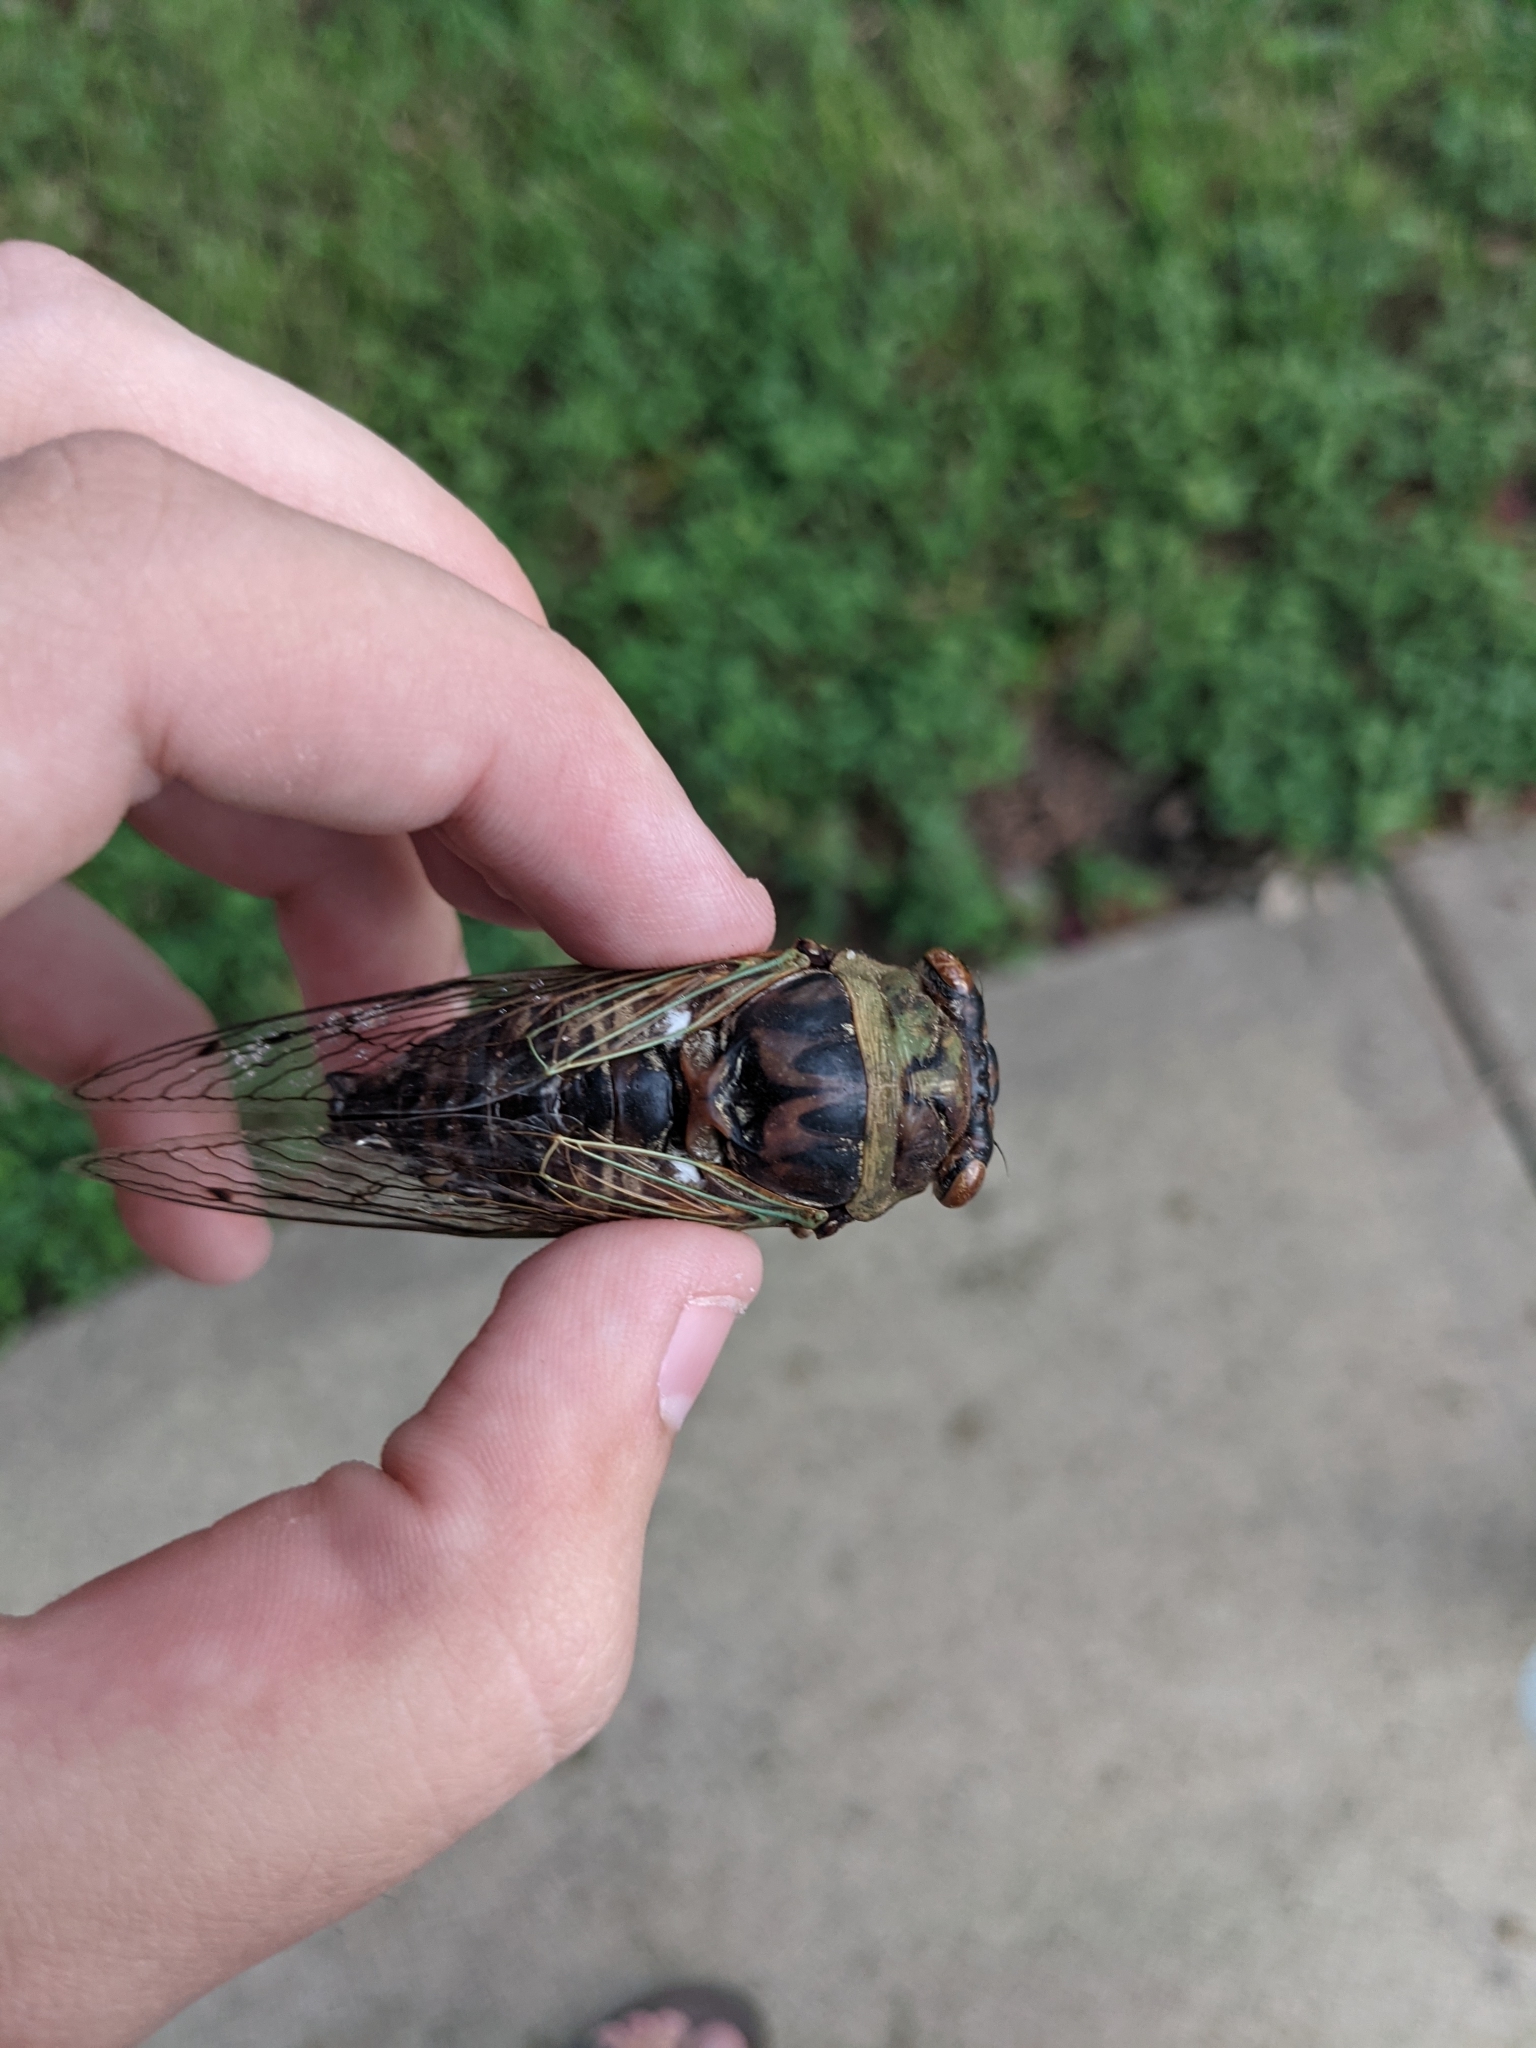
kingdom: Animalia
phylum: Arthropoda
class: Insecta
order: Hemiptera
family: Cicadidae
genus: Megatibicen
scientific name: Megatibicen resh
